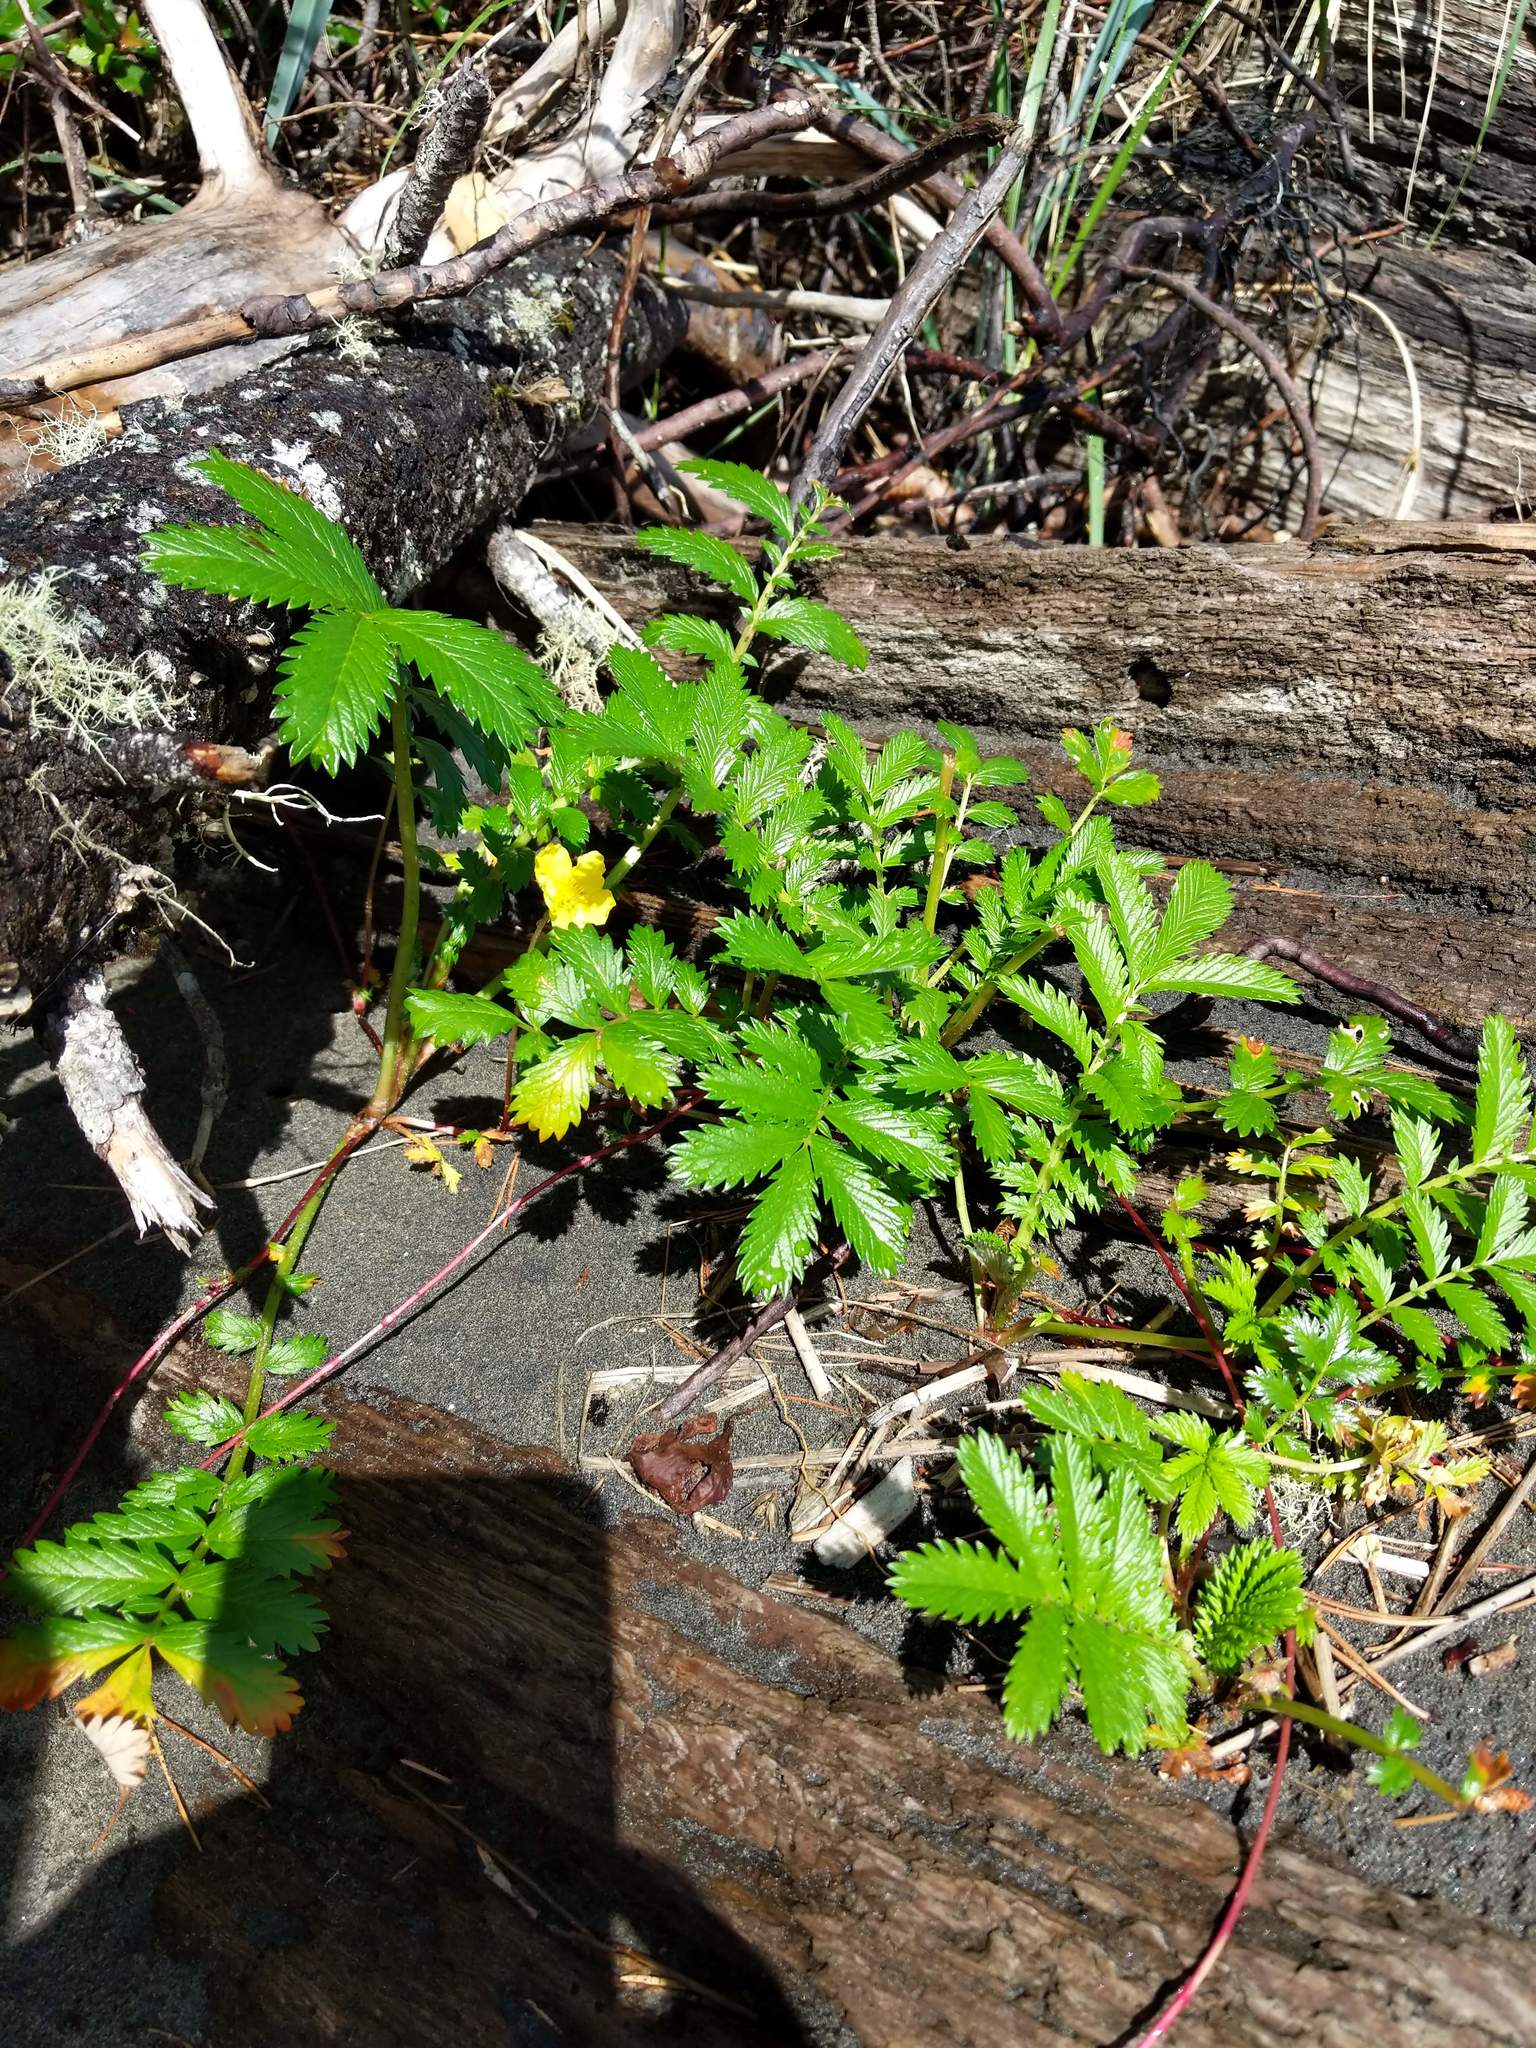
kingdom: Plantae
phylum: Tracheophyta
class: Magnoliopsida
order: Rosales
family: Rosaceae
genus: Argentina
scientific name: Argentina anserina
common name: Common silverweed
